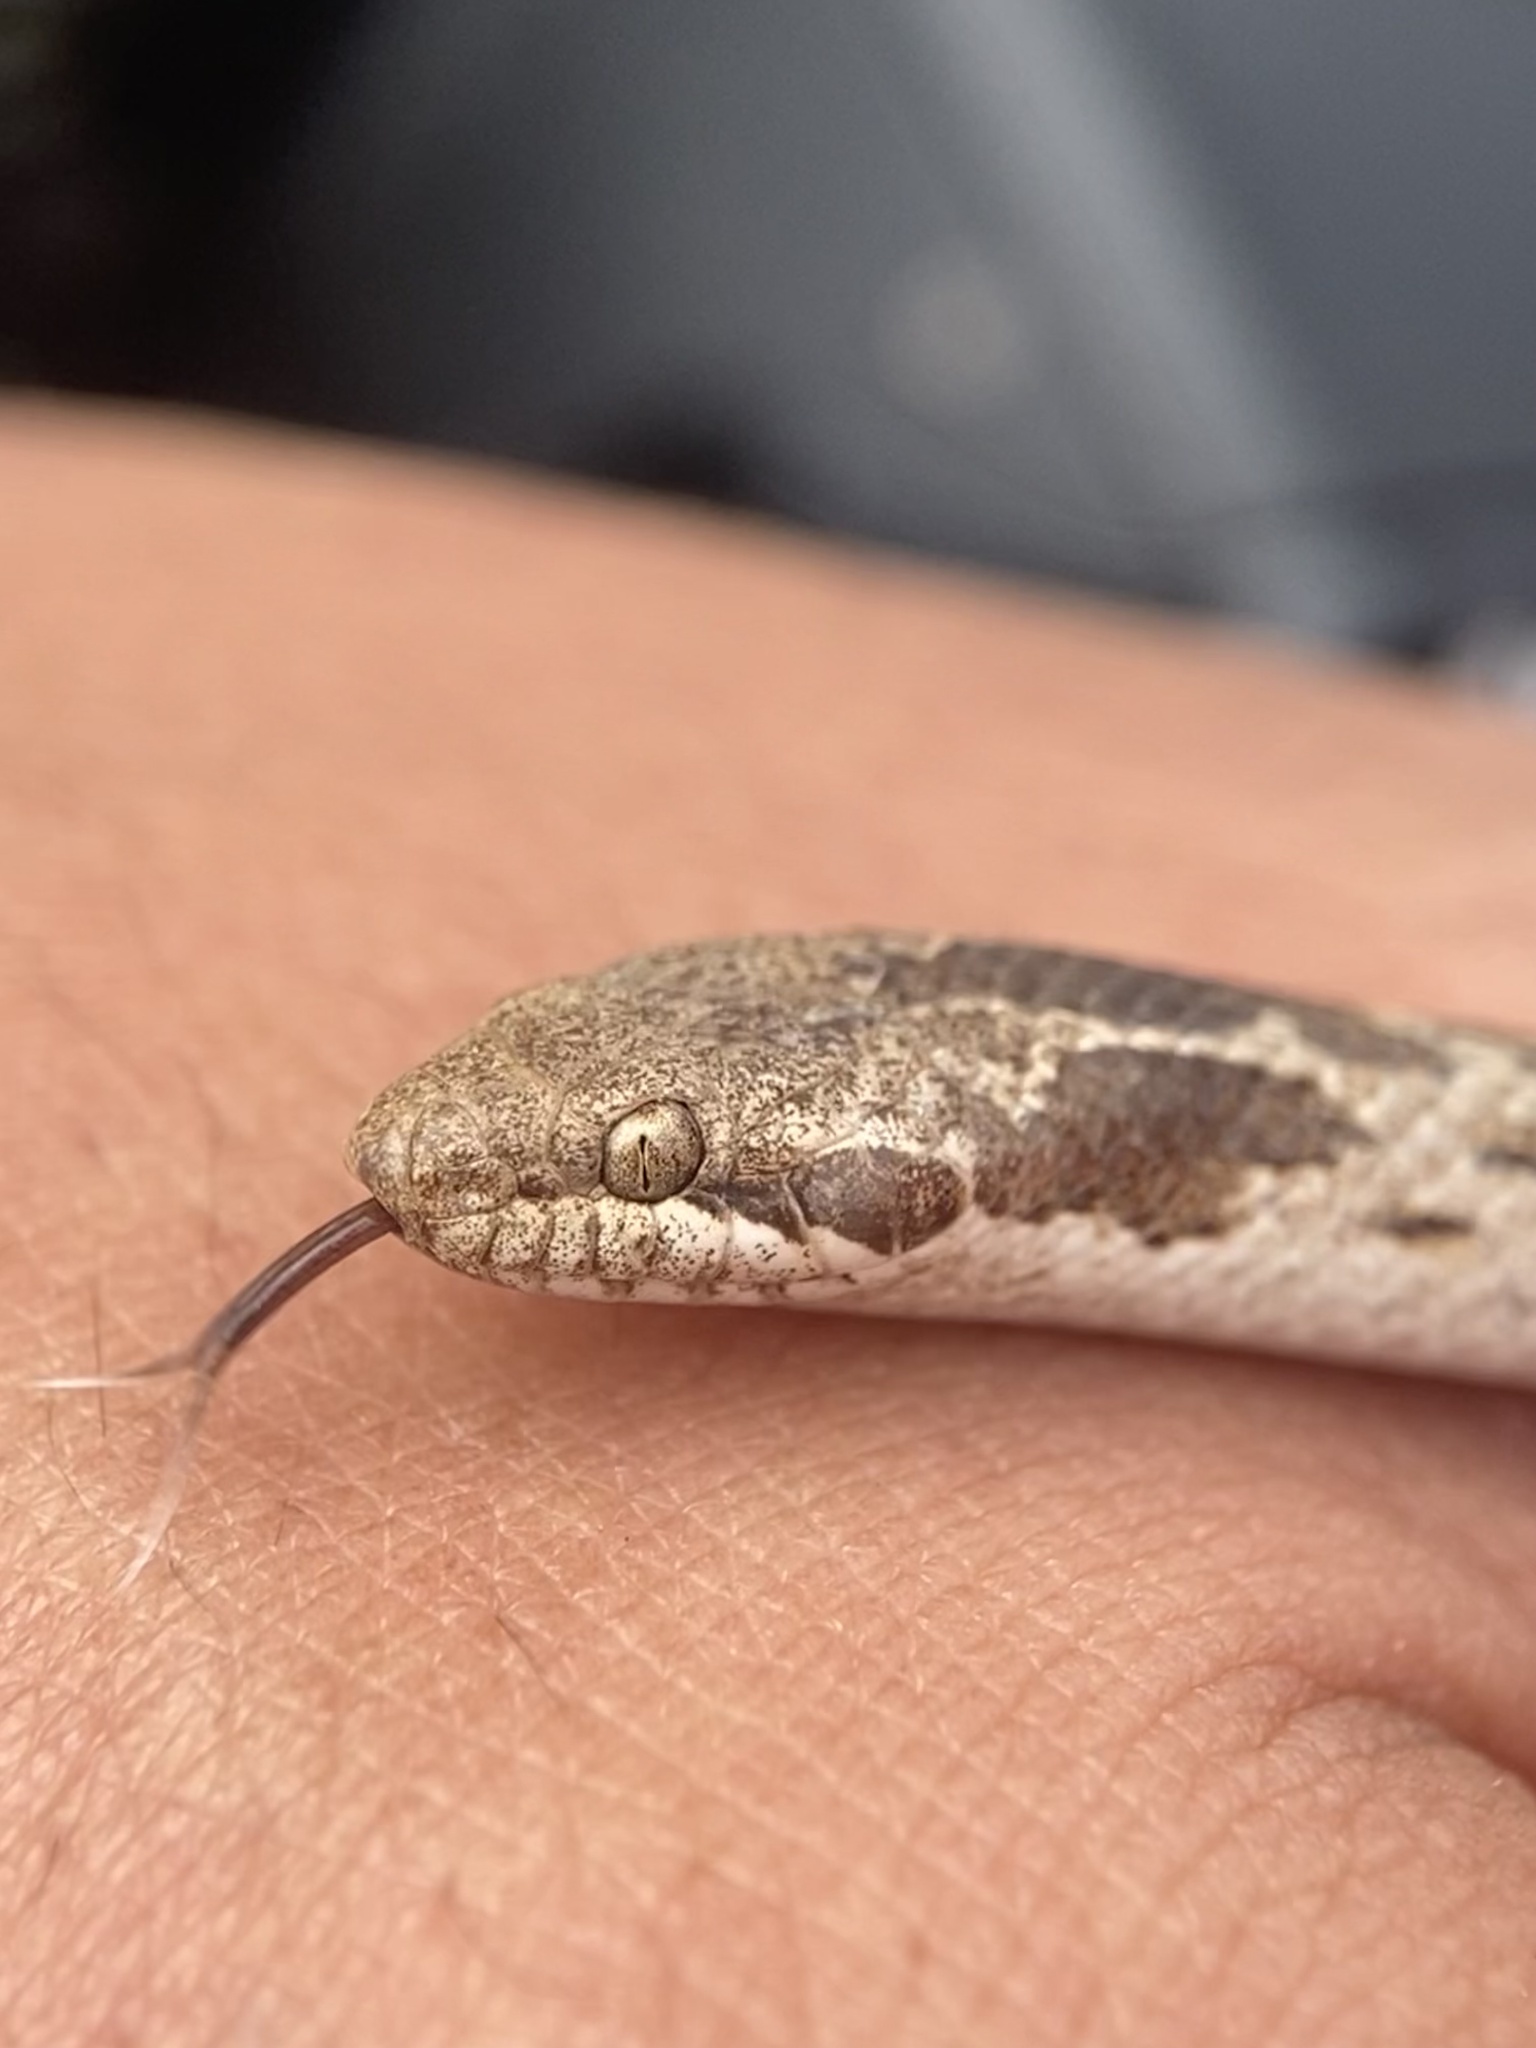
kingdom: Animalia
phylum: Chordata
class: Squamata
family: Colubridae
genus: Hypsiglena
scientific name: Hypsiglena ochrorhynchus
